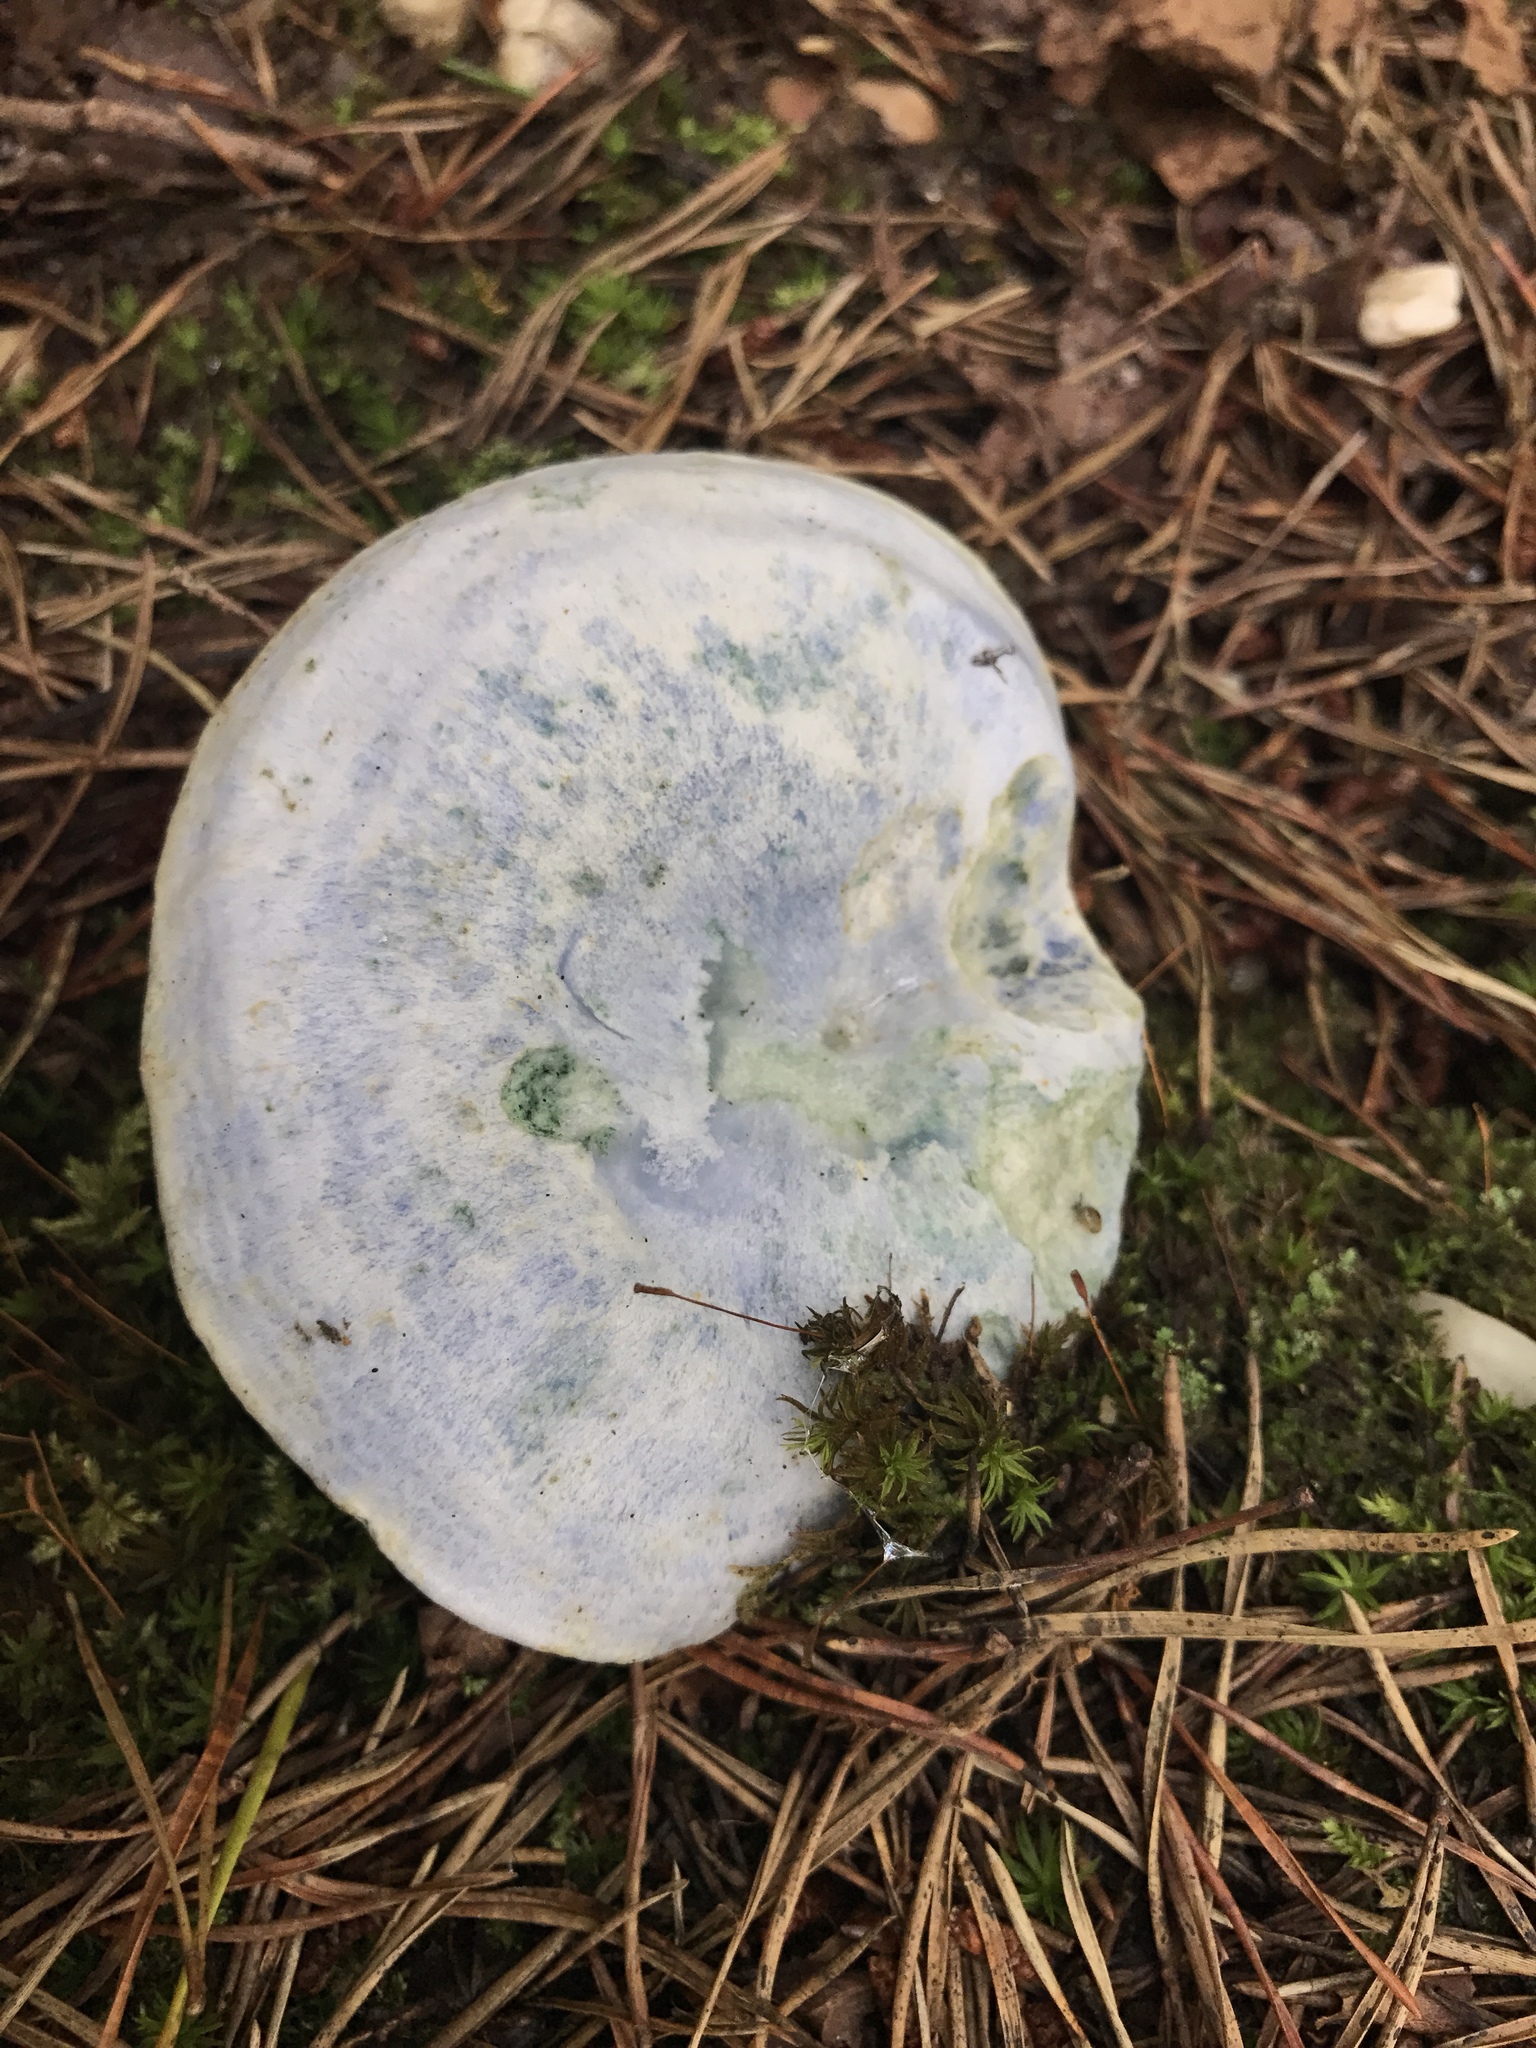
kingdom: Fungi
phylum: Basidiomycota
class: Agaricomycetes
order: Russulales
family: Russulaceae
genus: Lactarius
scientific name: Lactarius indigo
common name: Indigo milk cap
